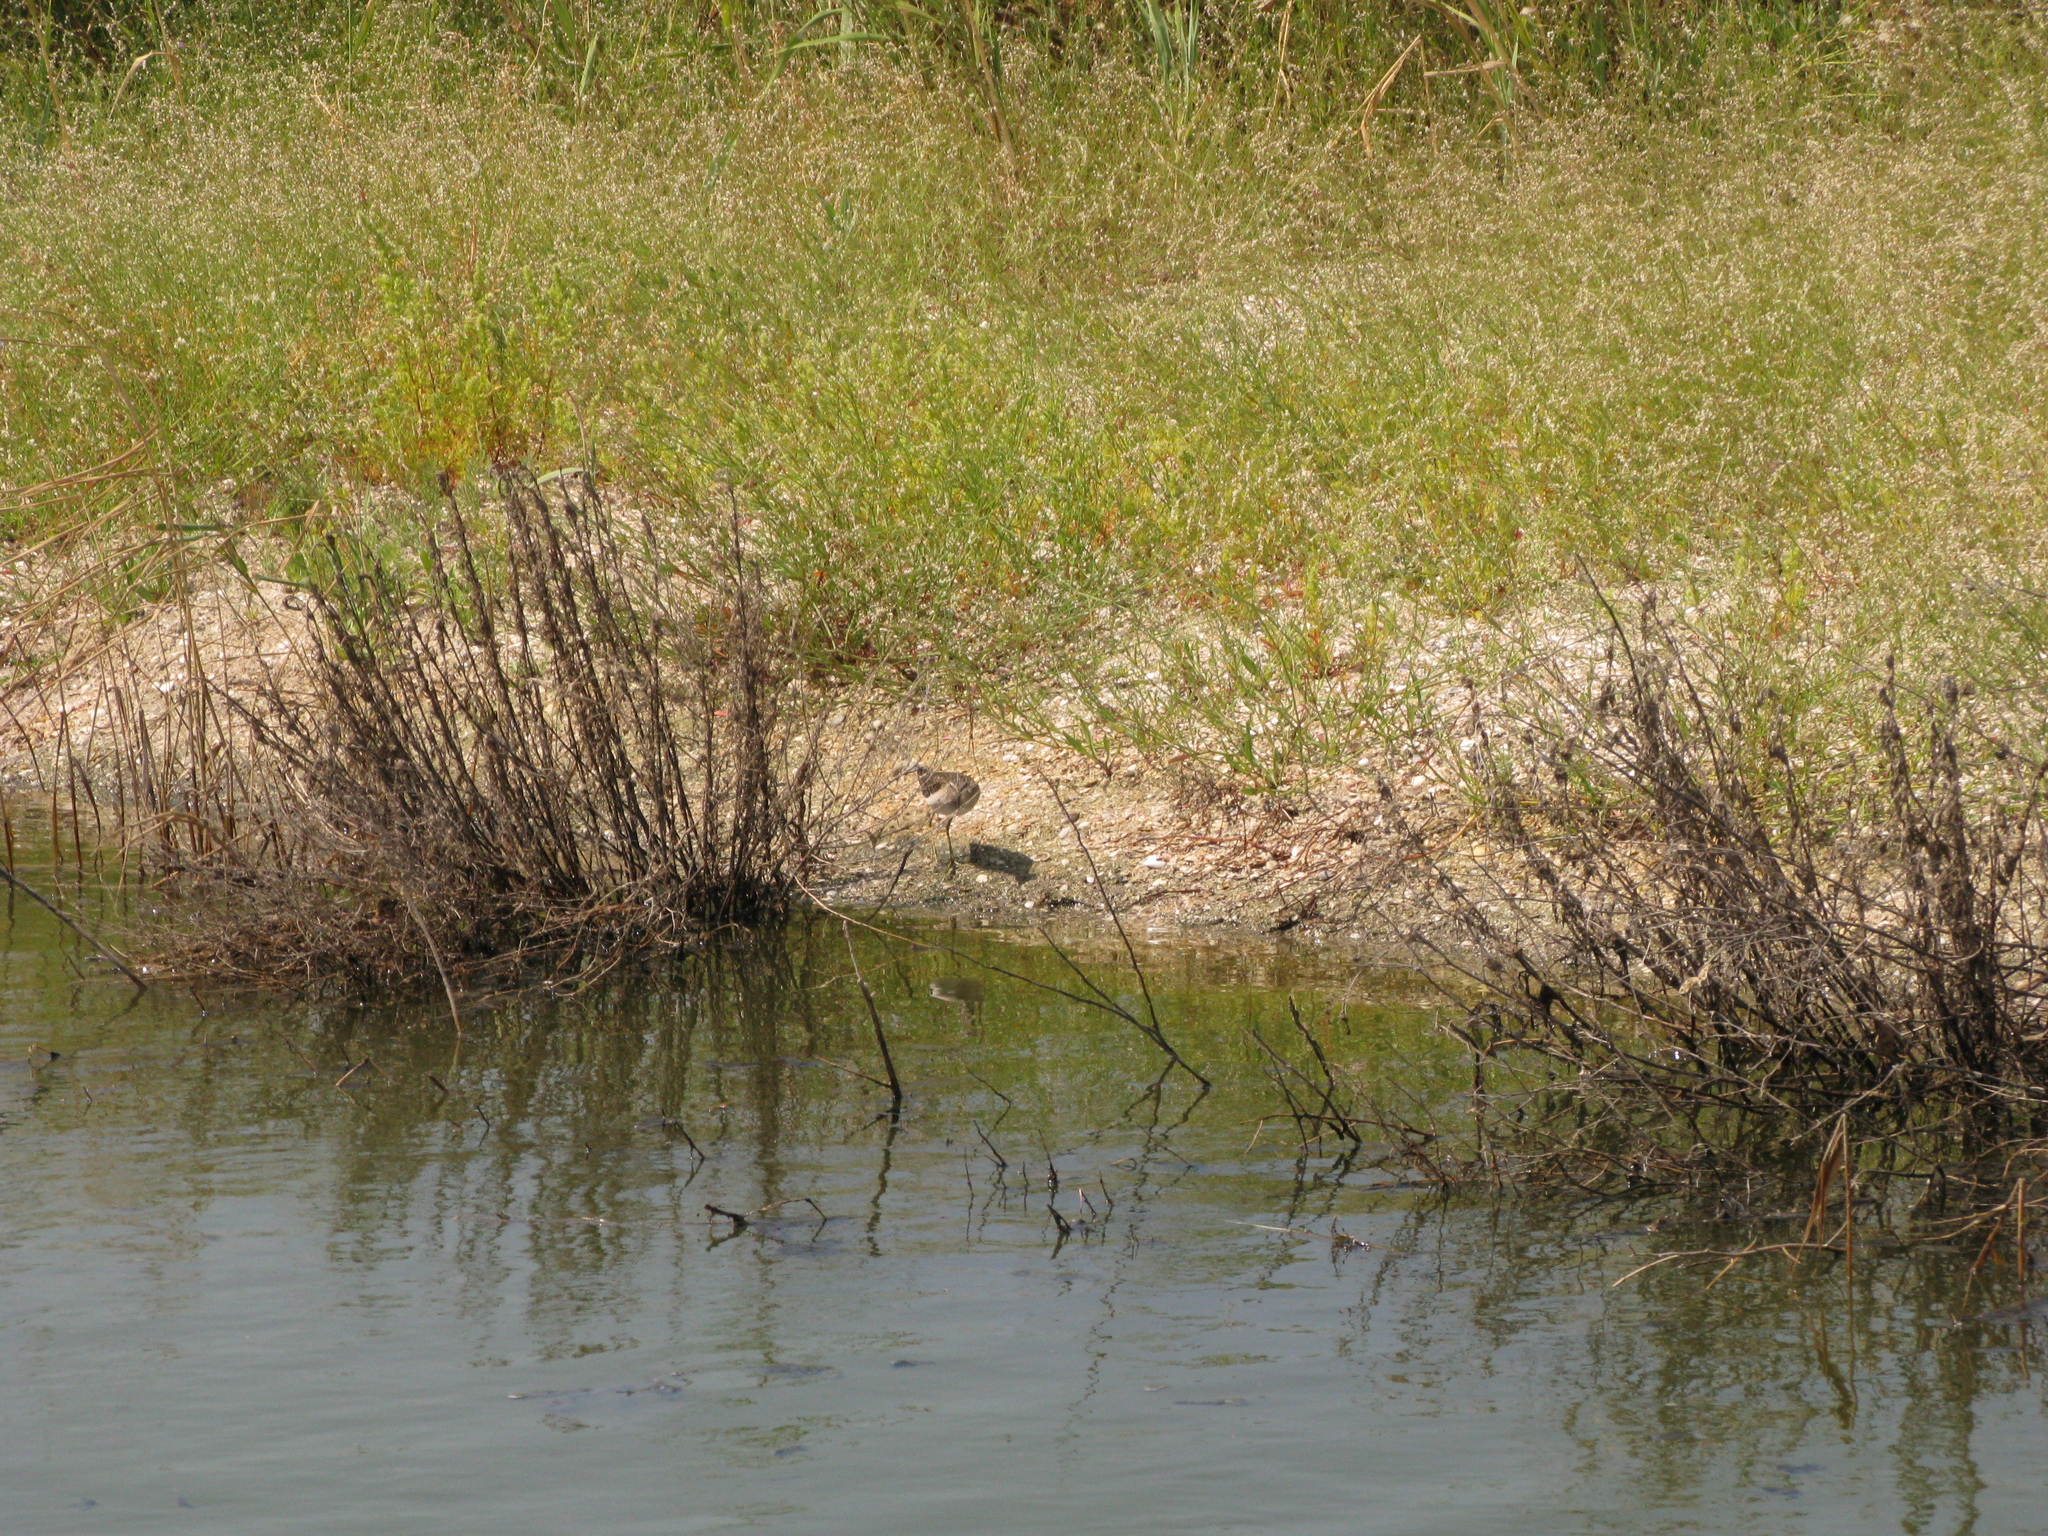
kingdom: Animalia
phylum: Chordata
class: Aves
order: Charadriiformes
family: Scolopacidae
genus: Tringa
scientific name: Tringa glareola
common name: Wood sandpiper
